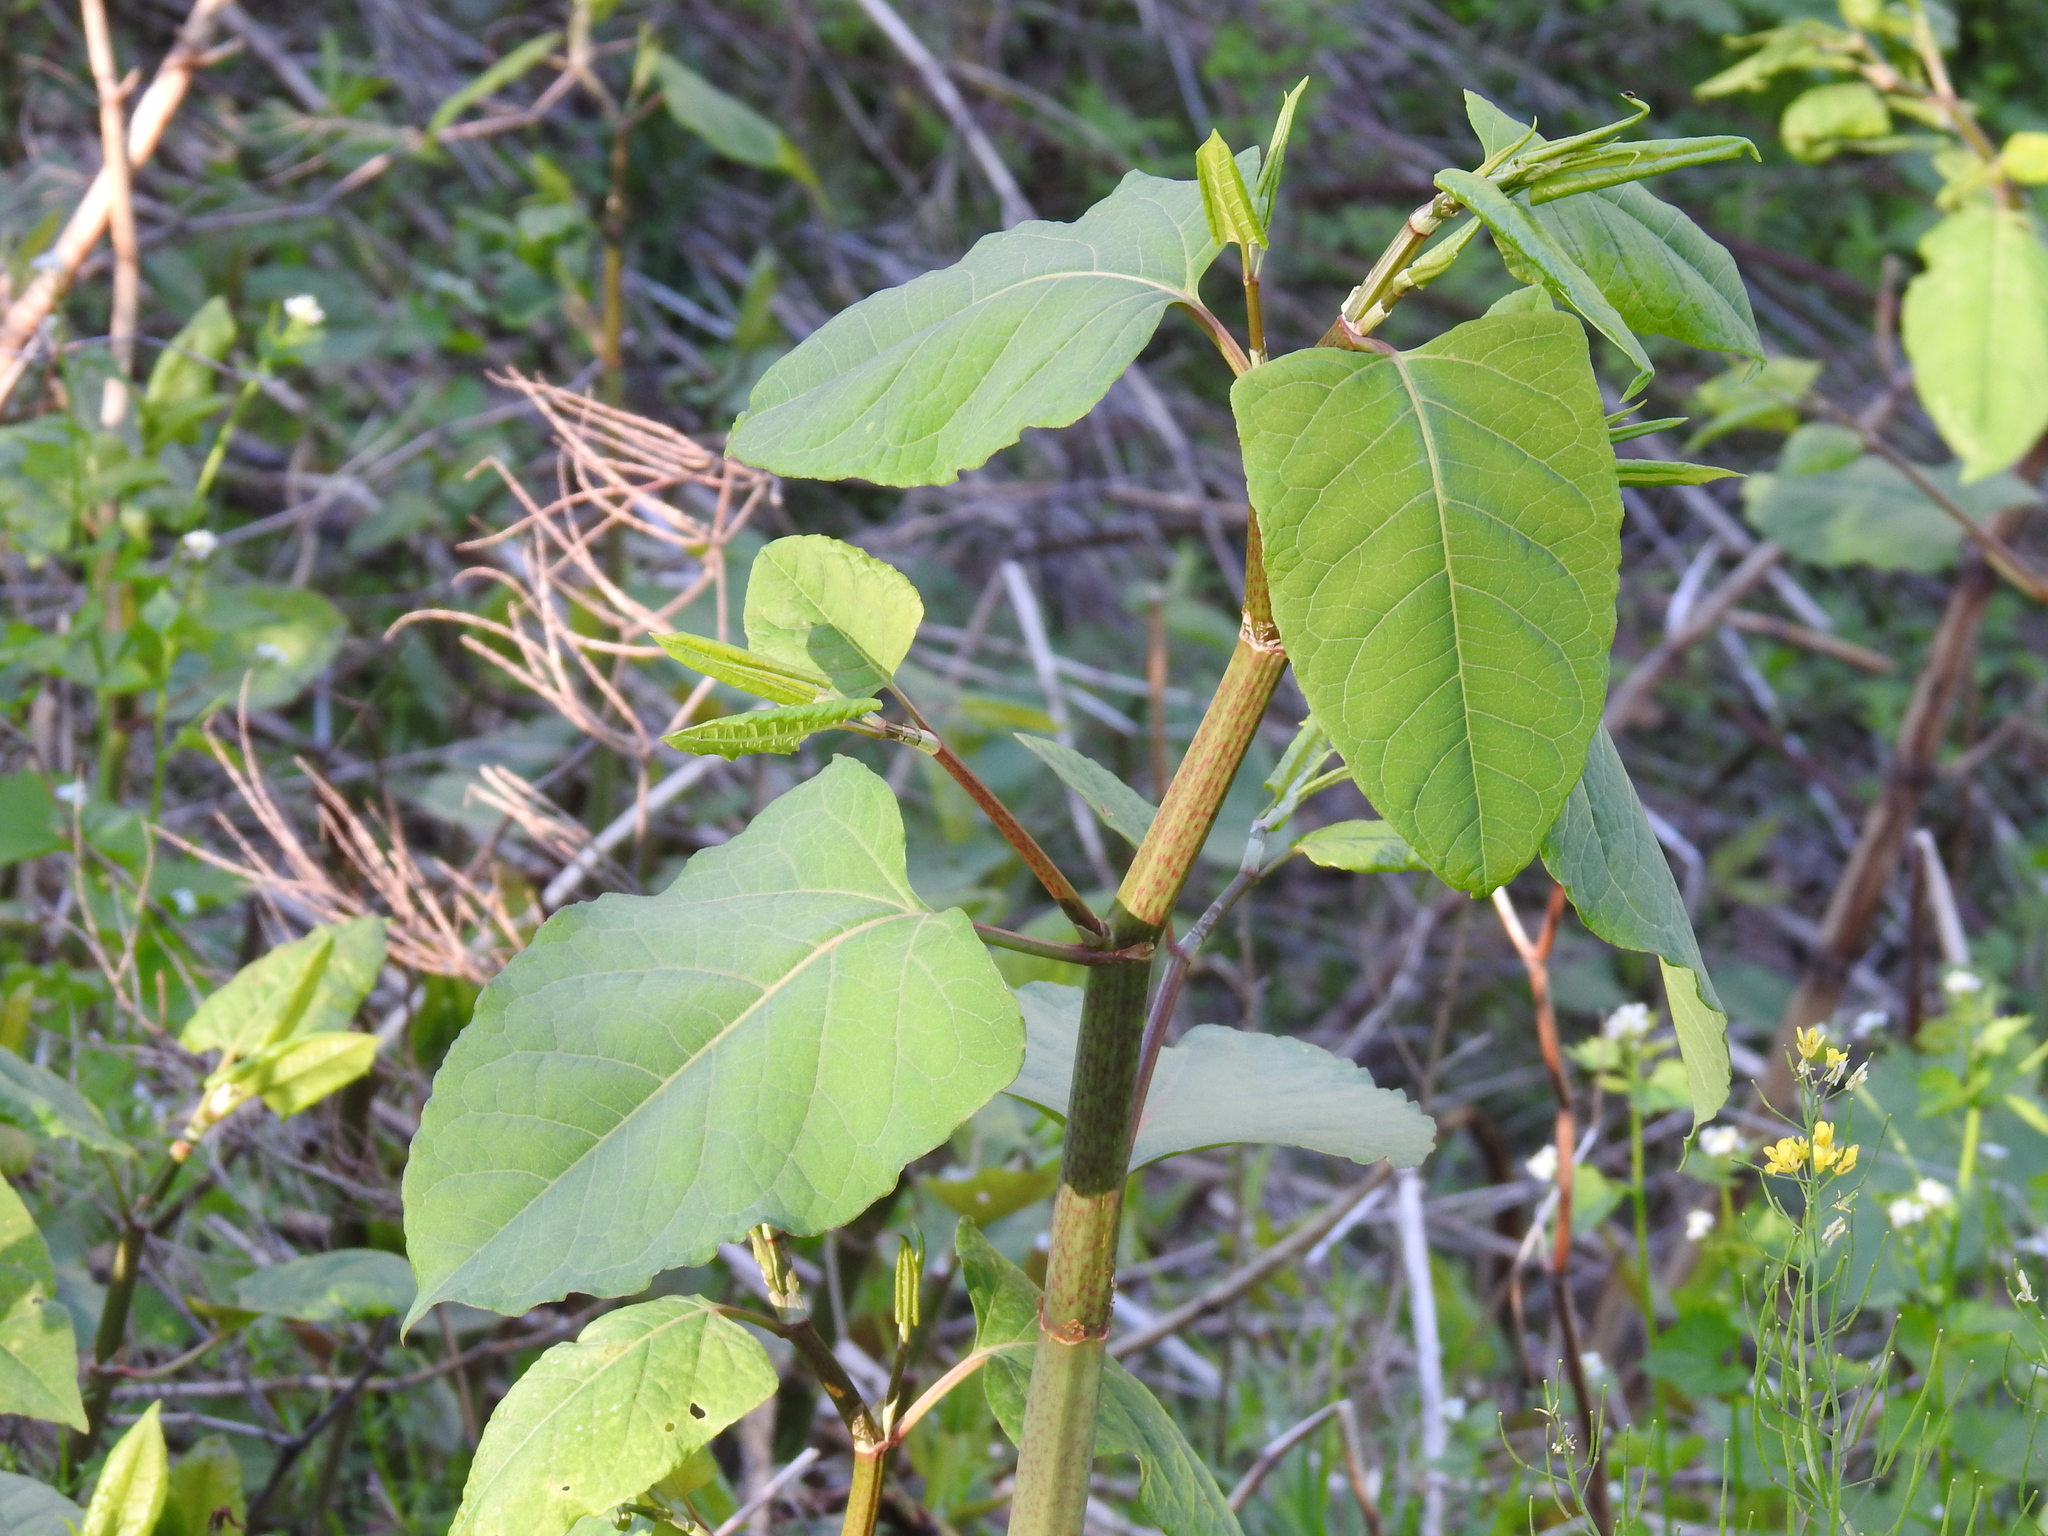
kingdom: Plantae
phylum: Tracheophyta
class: Magnoliopsida
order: Caryophyllales
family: Polygonaceae
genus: Reynoutria
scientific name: Reynoutria japonica
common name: Japanese knotweed
